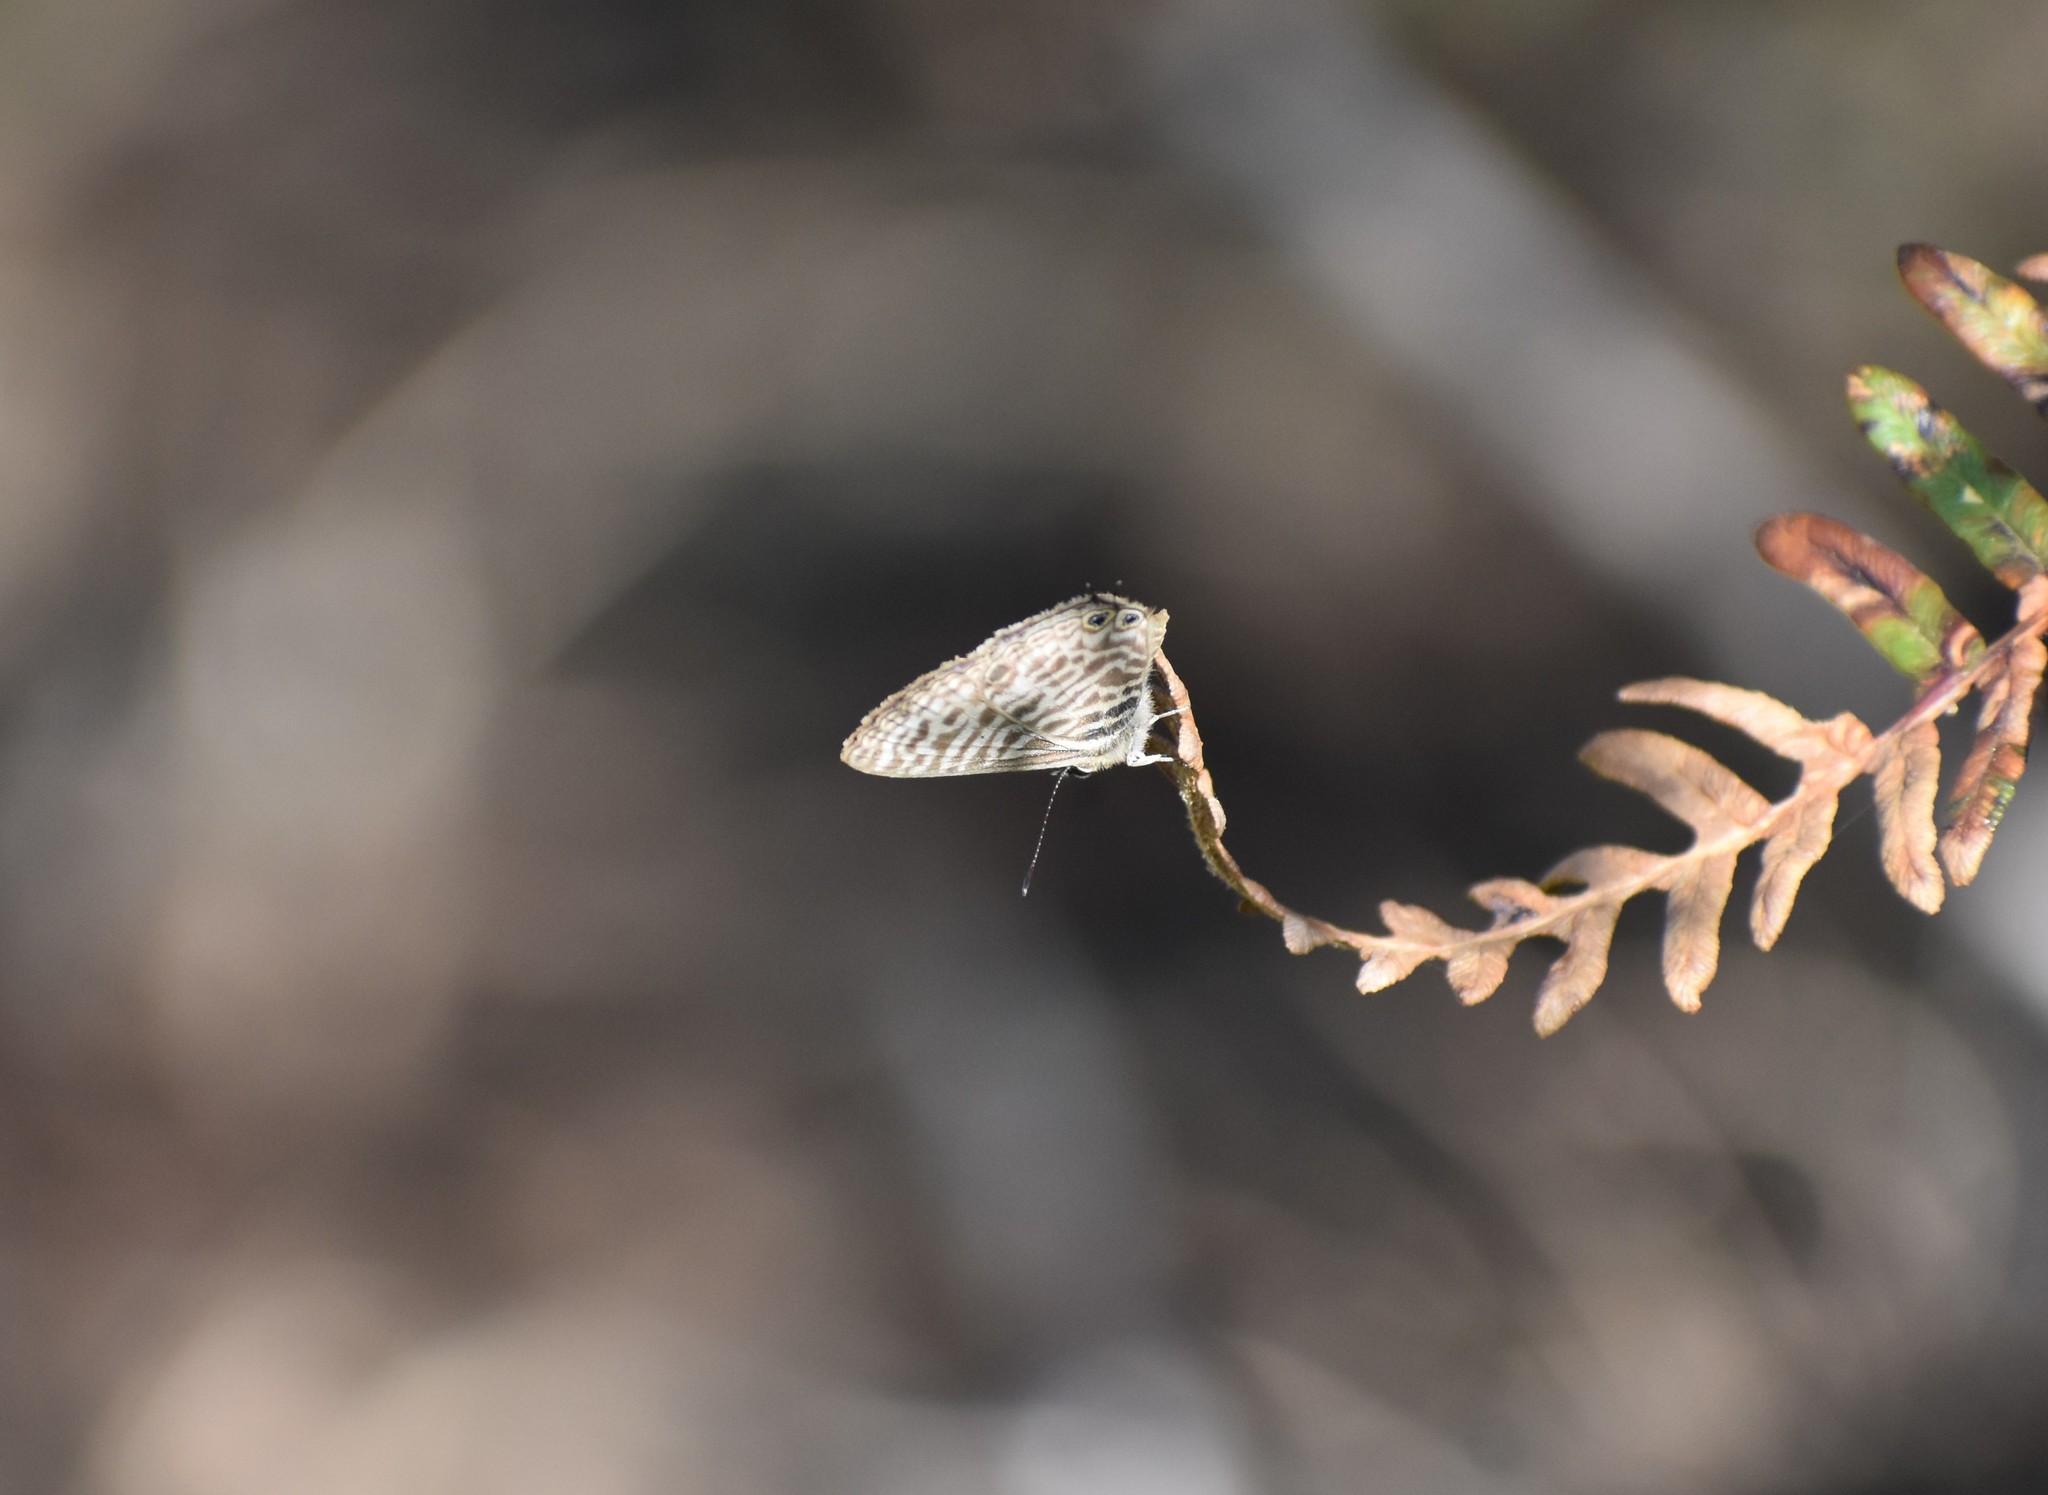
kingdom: Animalia
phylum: Arthropoda
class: Insecta
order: Lepidoptera
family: Lycaenidae
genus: Leptotes
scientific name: Leptotes
